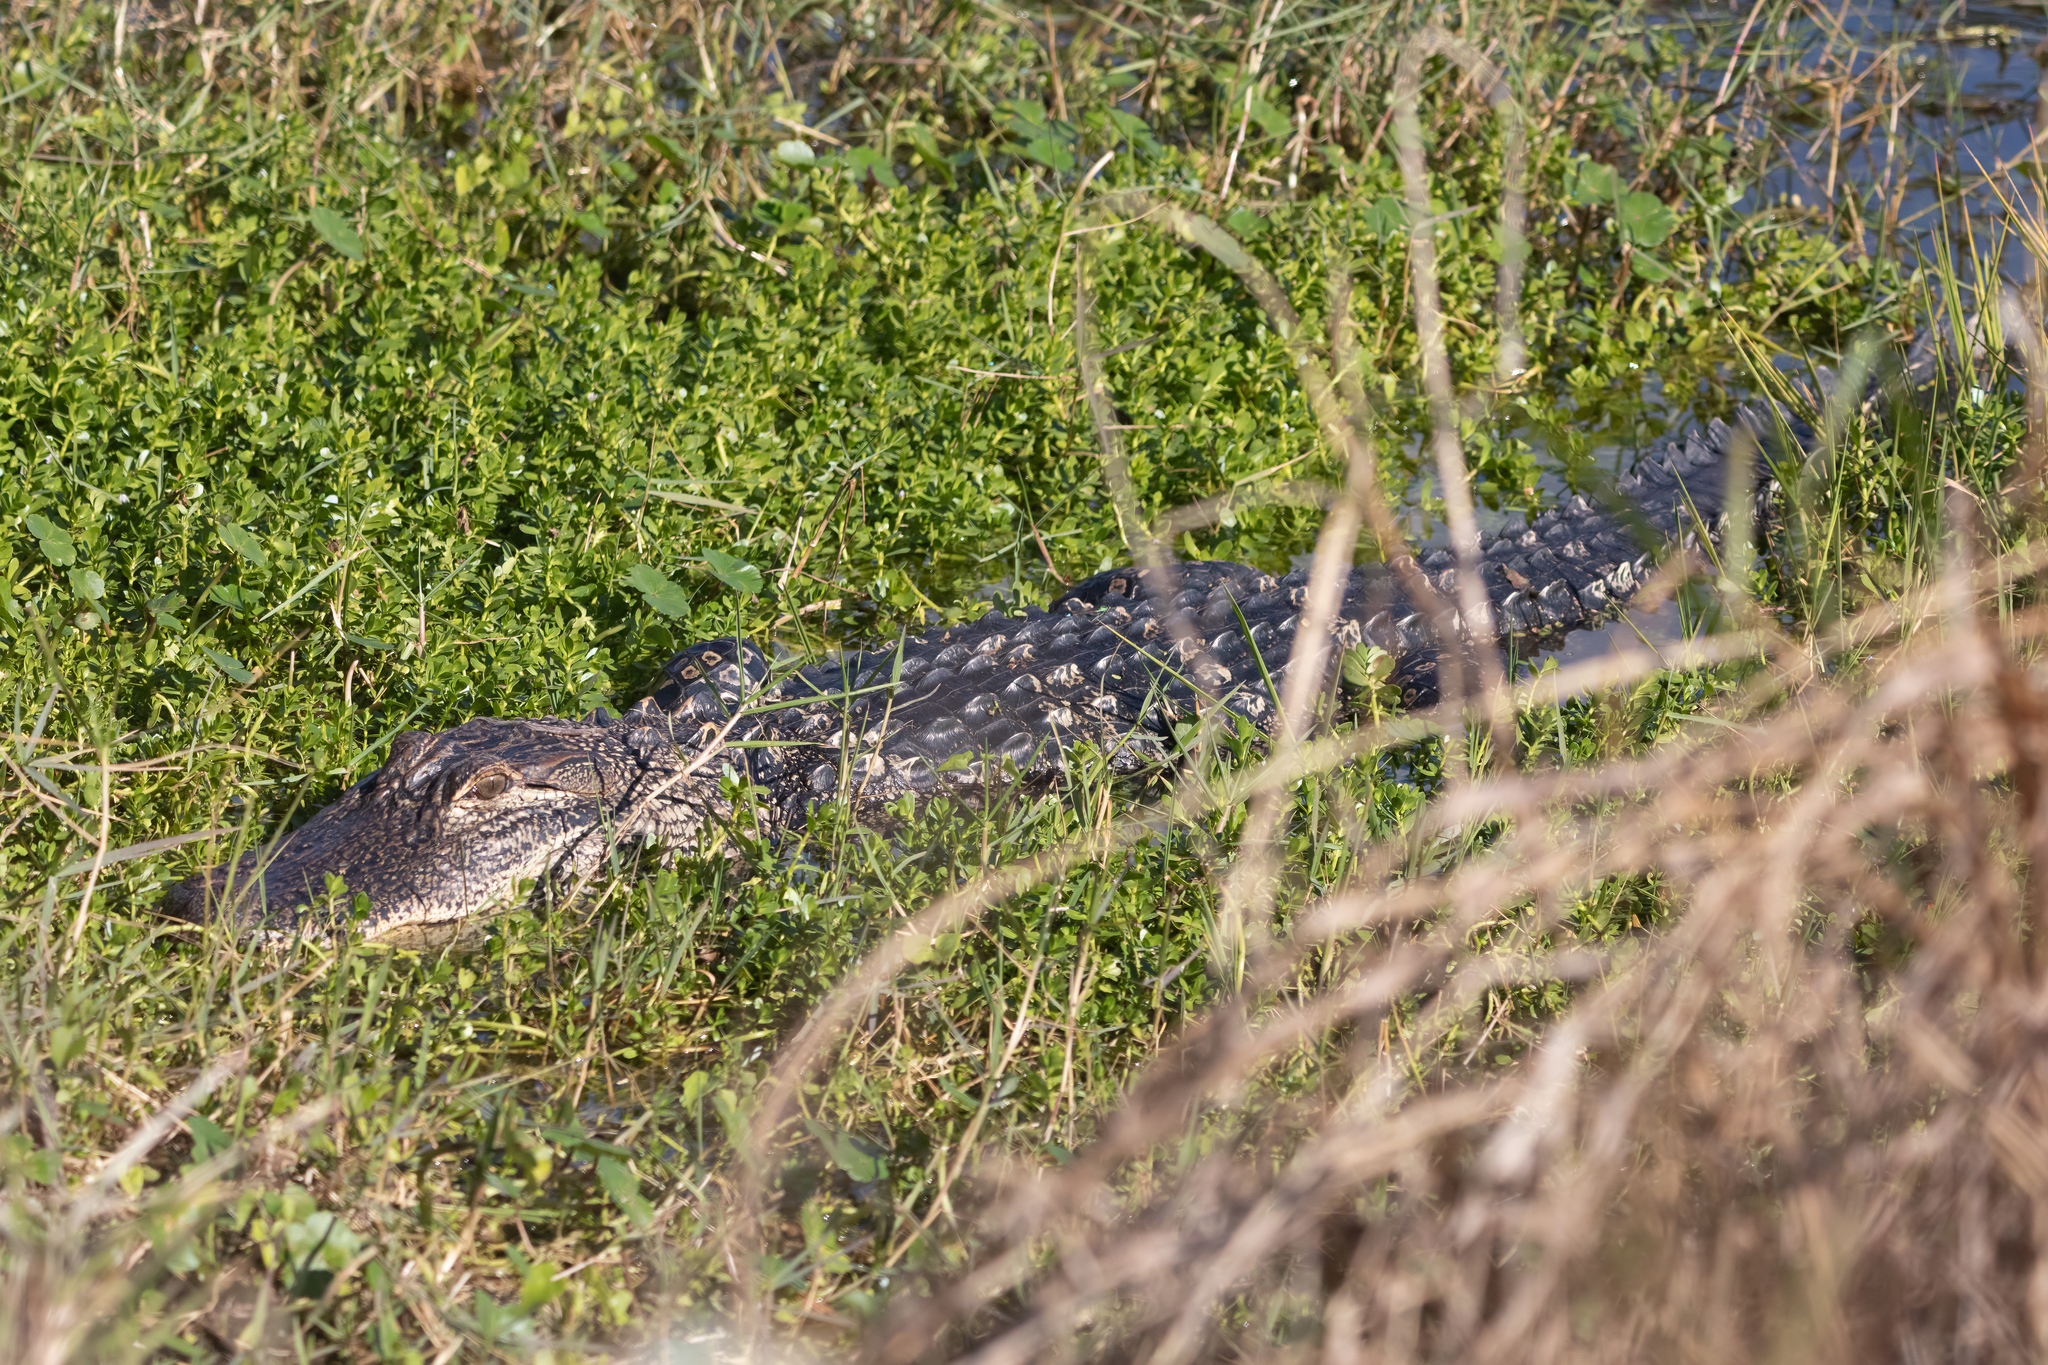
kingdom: Animalia
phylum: Chordata
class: Crocodylia
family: Alligatoridae
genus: Alligator
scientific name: Alligator mississippiensis
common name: American alligator
